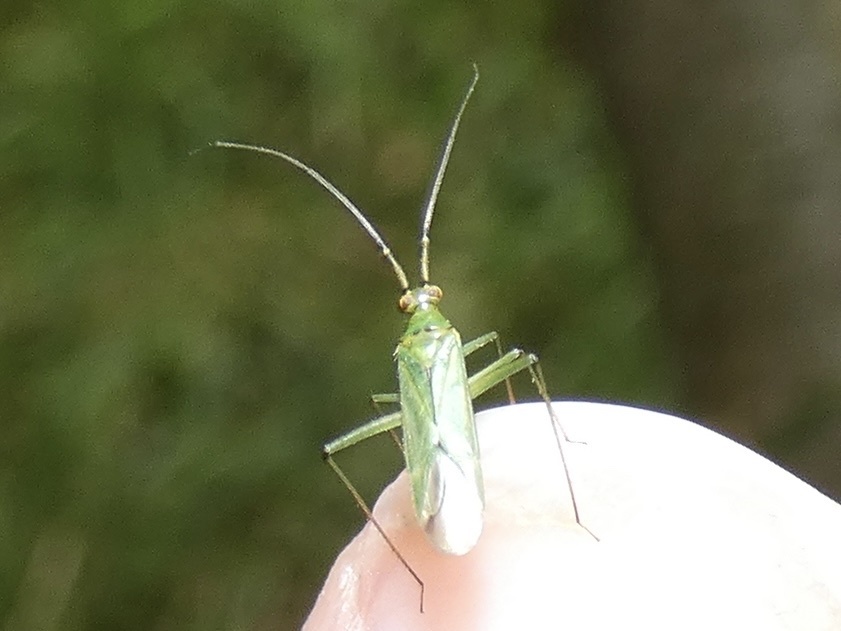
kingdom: Animalia
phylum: Arthropoda
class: Insecta
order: Hemiptera
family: Miridae
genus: Blepharidopterus
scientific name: Blepharidopterus angulatus
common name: Plant bug
